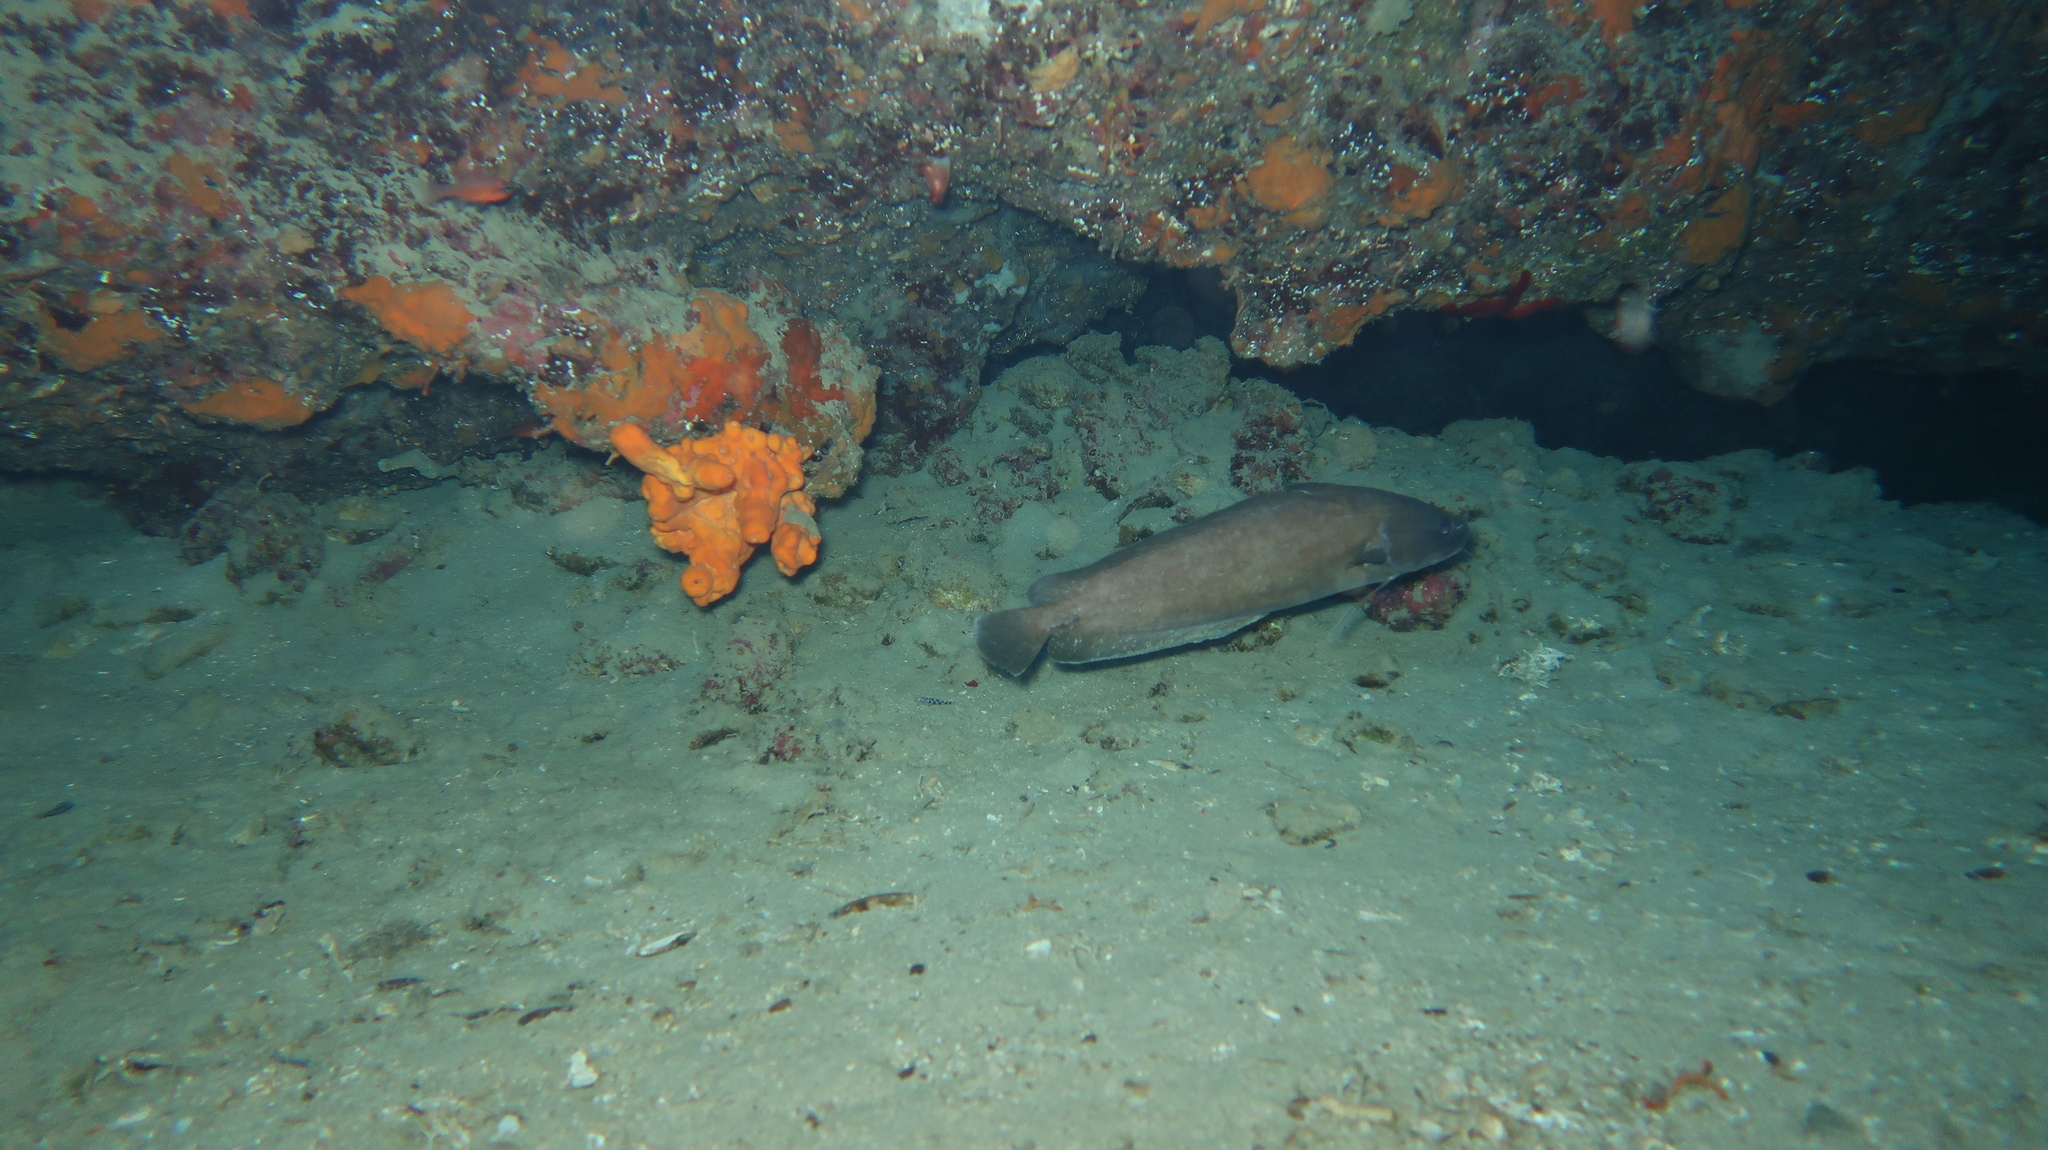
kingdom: Animalia
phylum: Chordata
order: Gadiformes
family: Phycidae
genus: Phycis
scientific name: Phycis phycis
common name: Forkbeard
